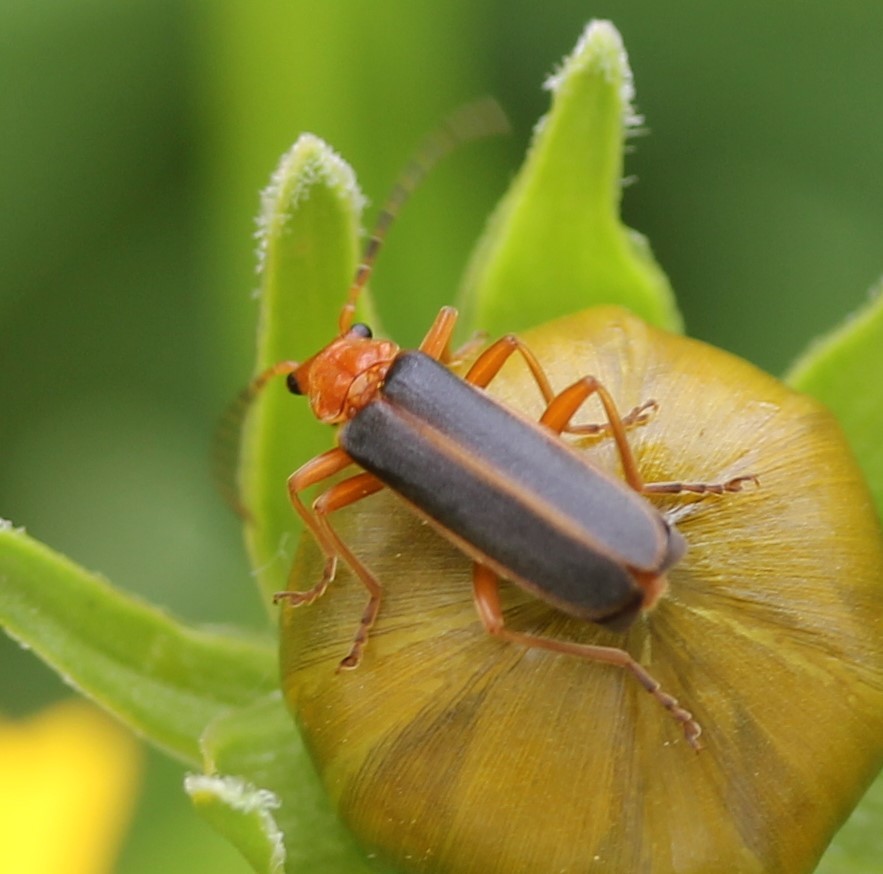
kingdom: Animalia
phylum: Arthropoda
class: Insecta
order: Coleoptera
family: Cantharidae
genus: Podabrus
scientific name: Podabrus tomentosus
